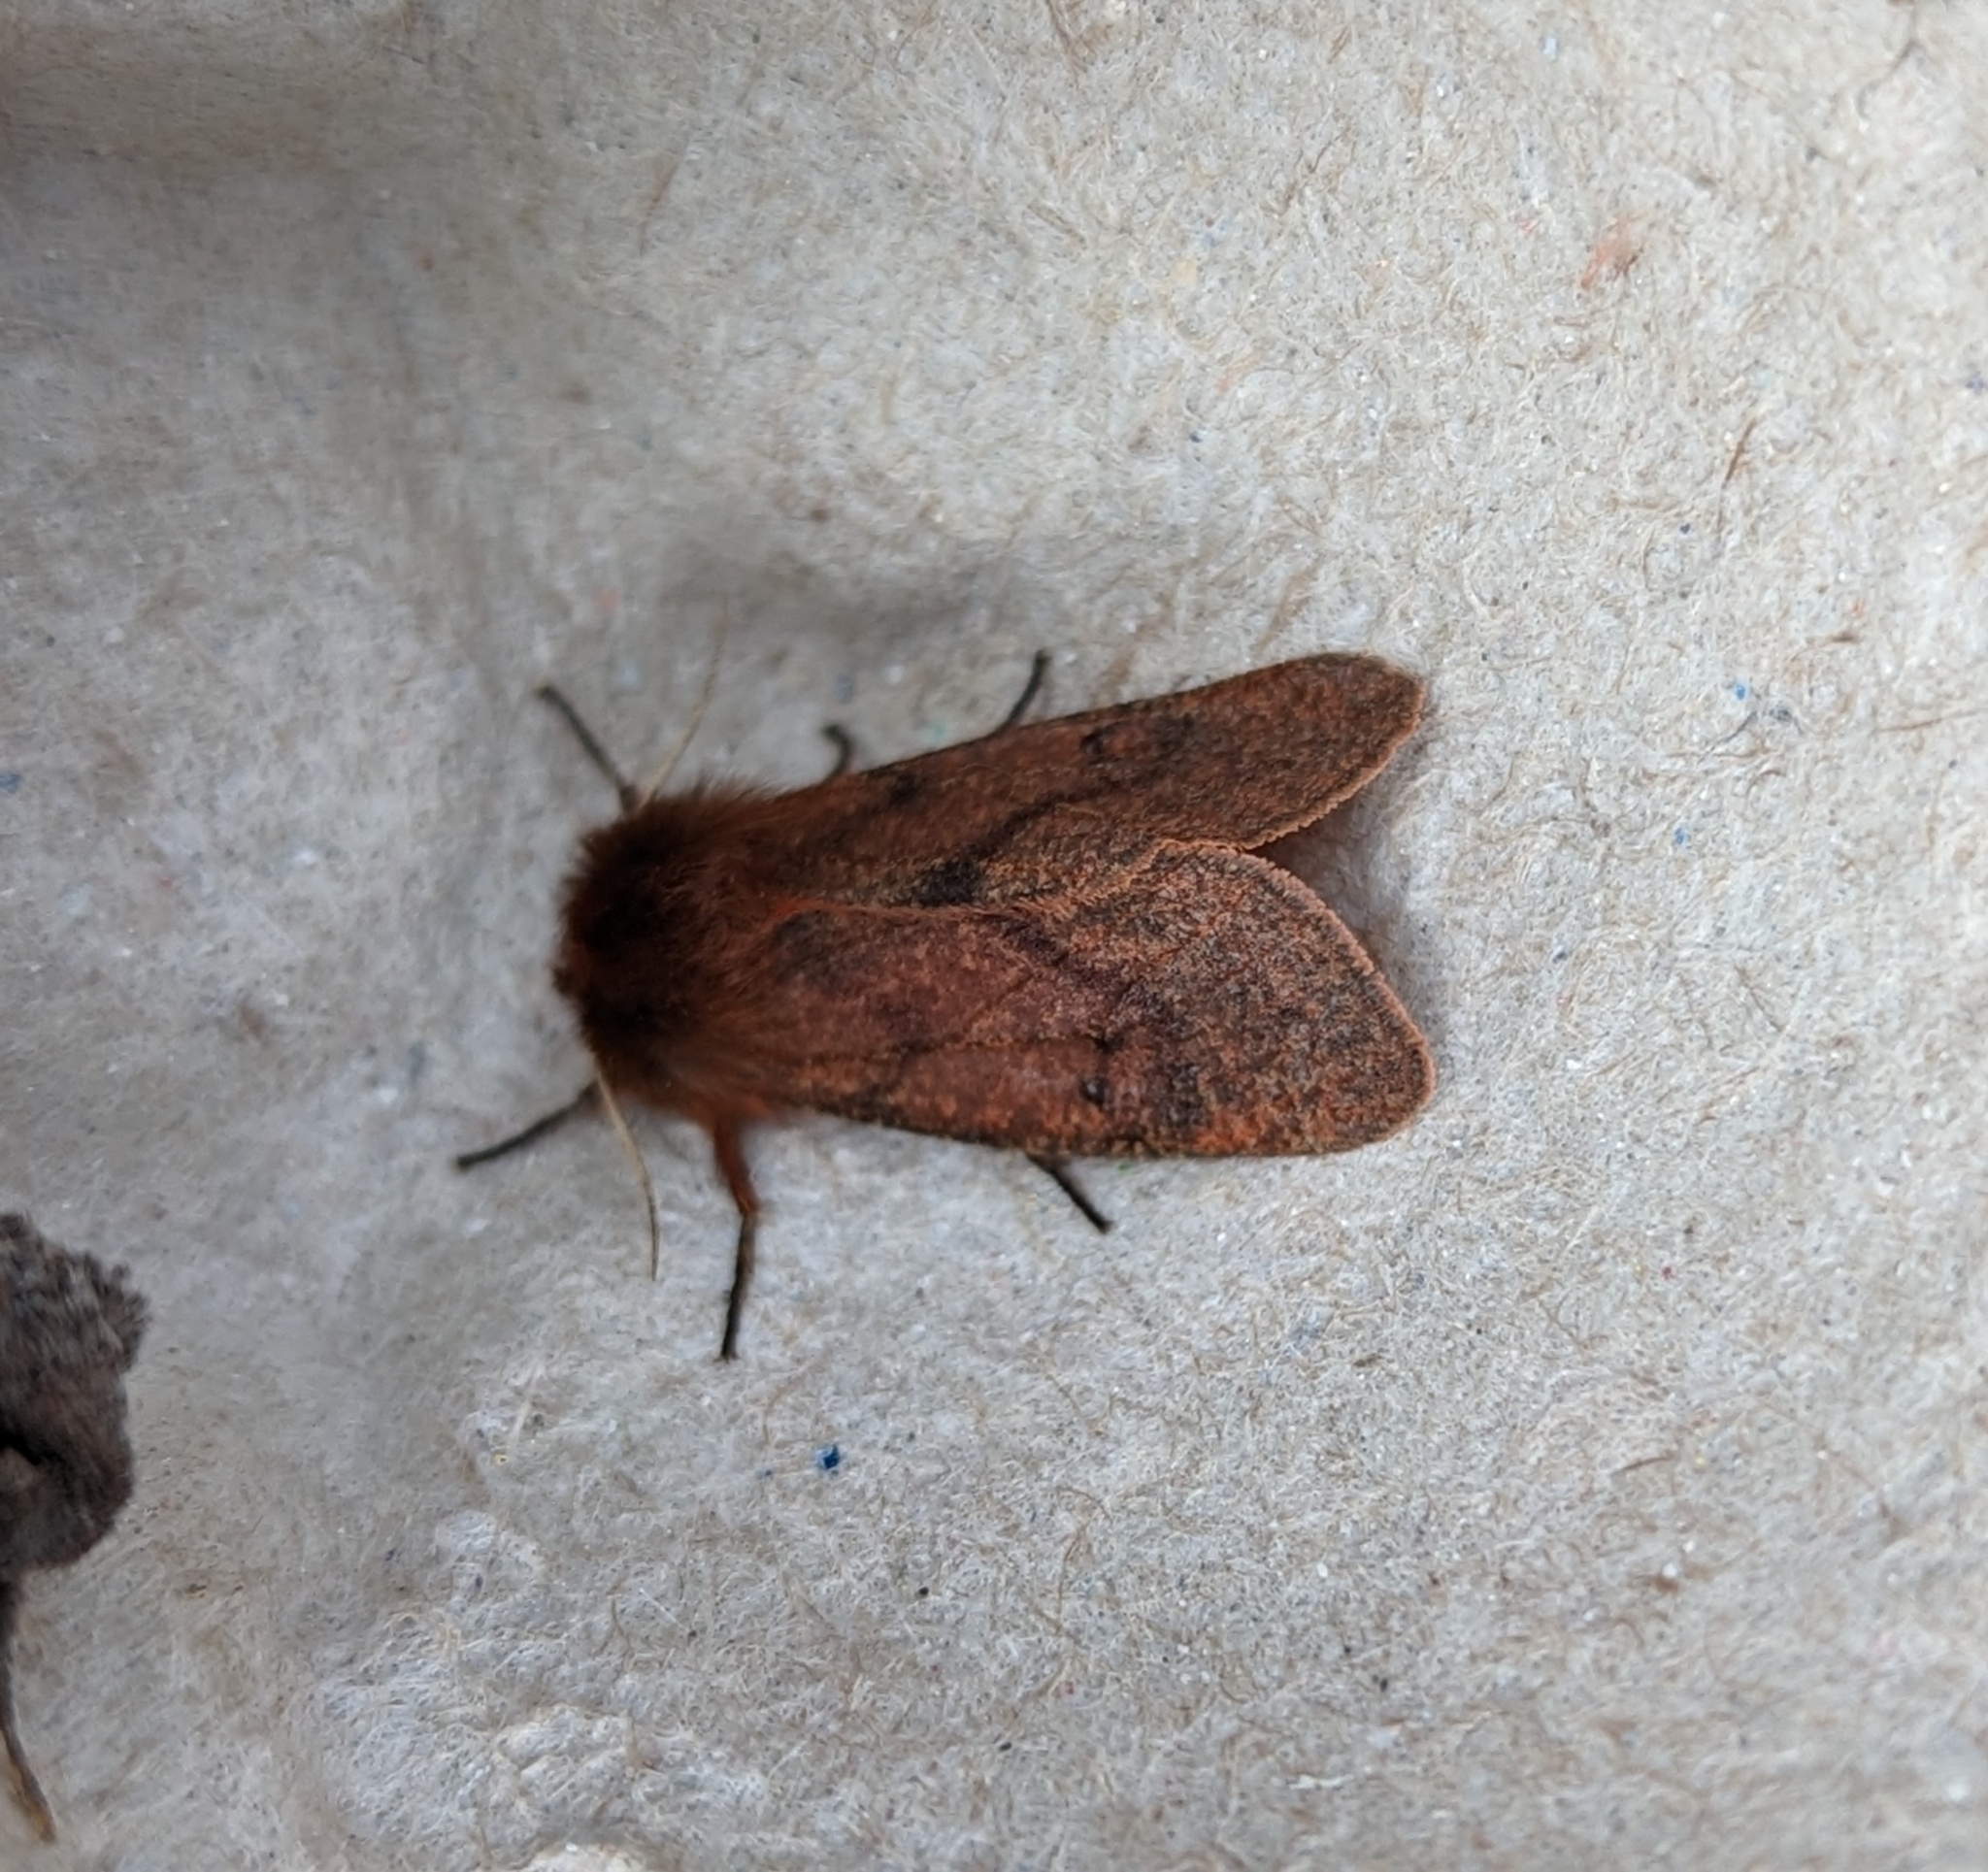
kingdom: Animalia
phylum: Arthropoda
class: Insecta
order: Lepidoptera
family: Erebidae
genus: Phragmatobia
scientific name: Phragmatobia assimilans
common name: Large ruby tiger moth
